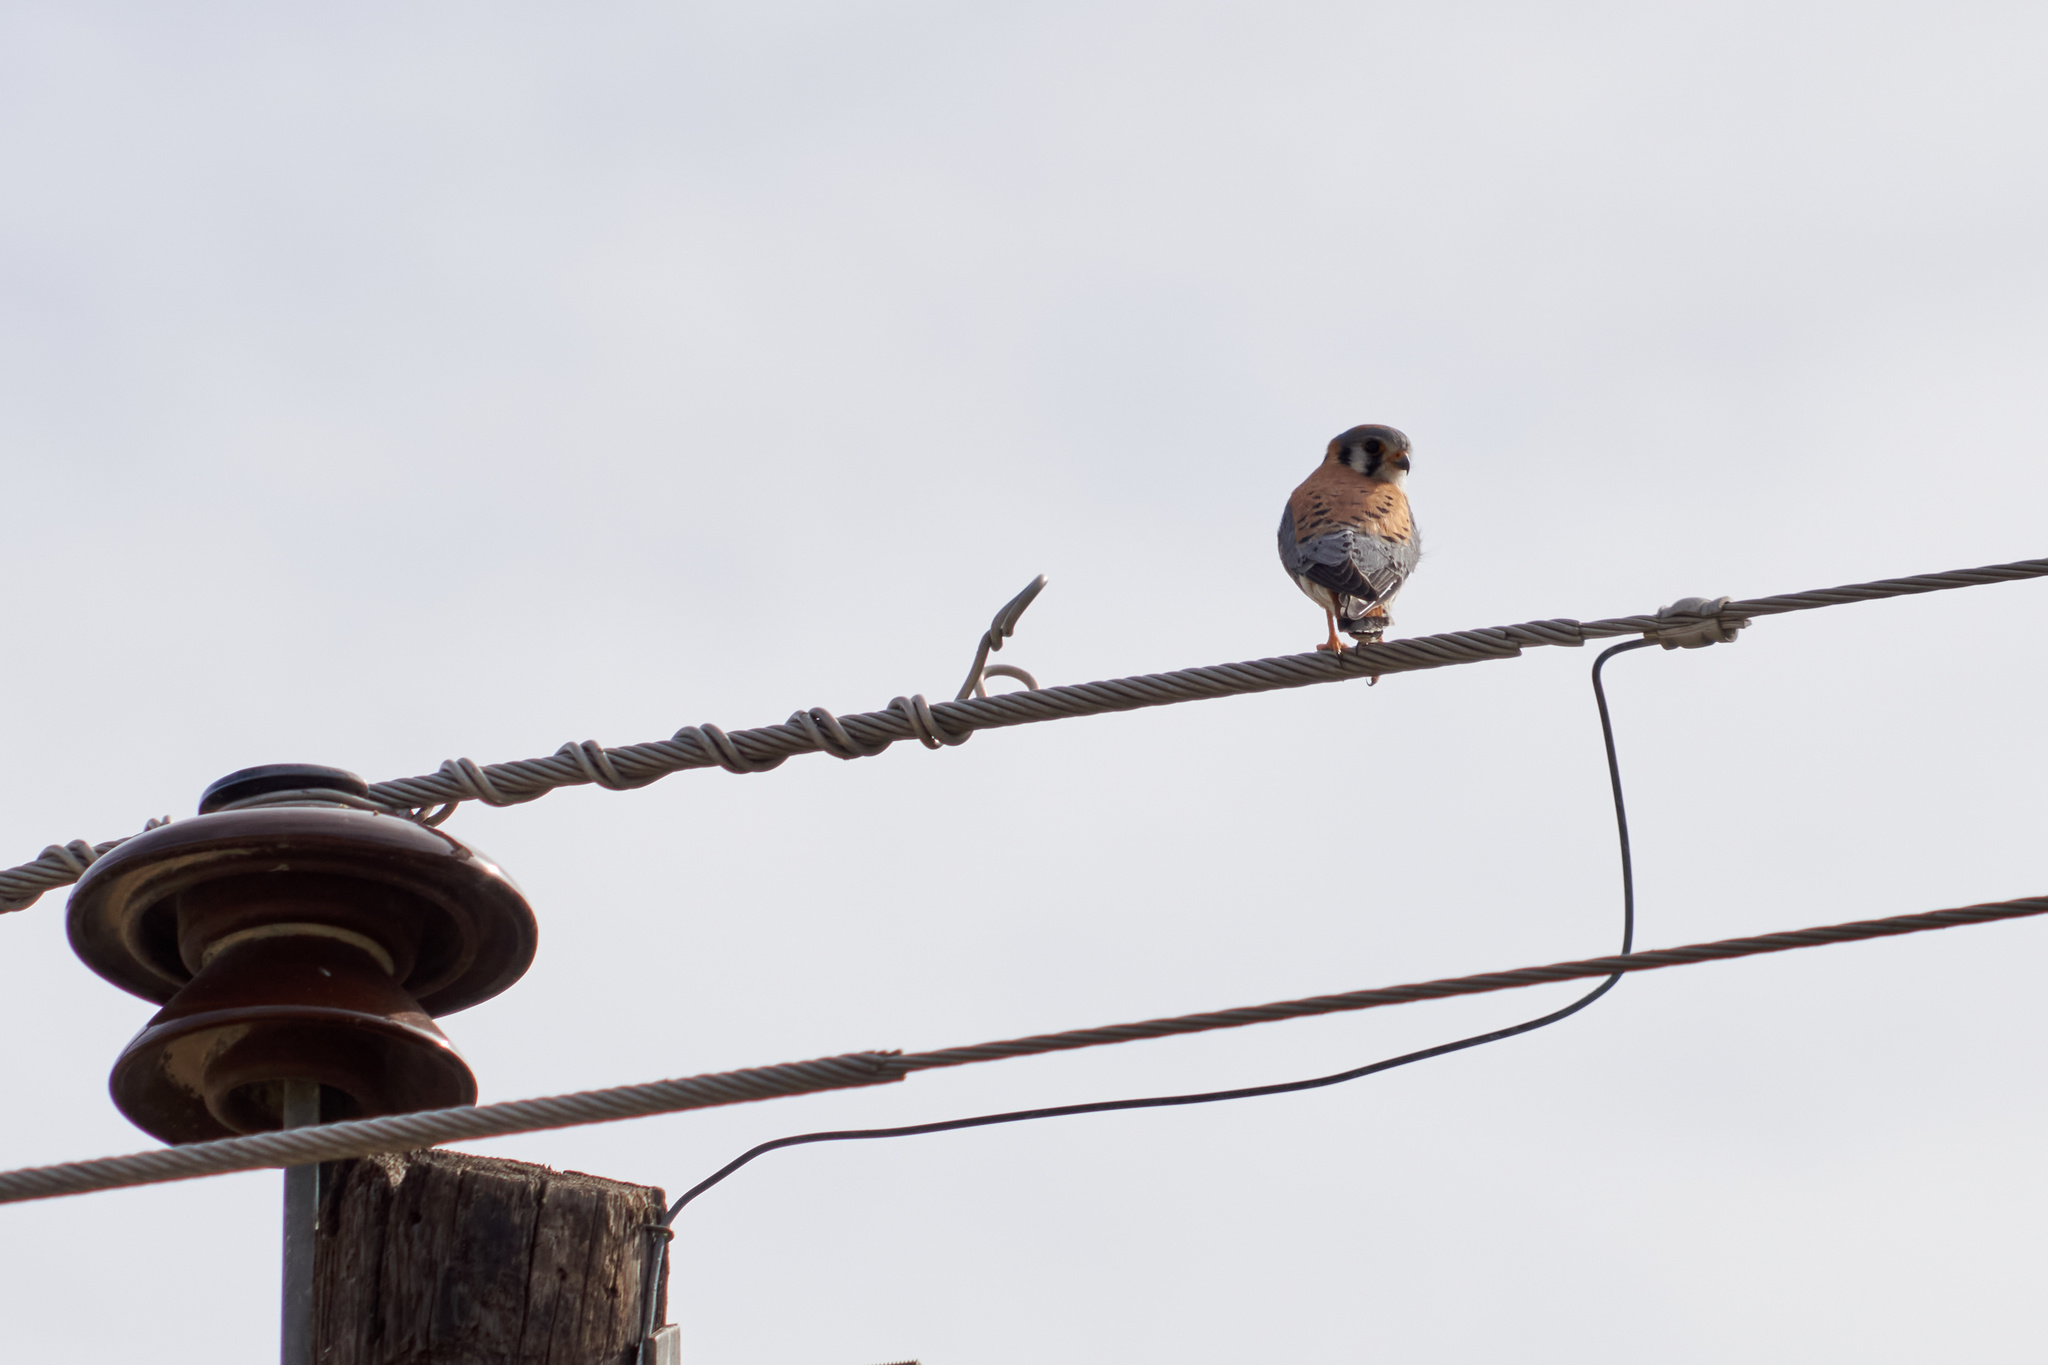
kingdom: Animalia
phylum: Chordata
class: Aves
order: Falconiformes
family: Falconidae
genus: Falco
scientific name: Falco sparverius
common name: American kestrel
